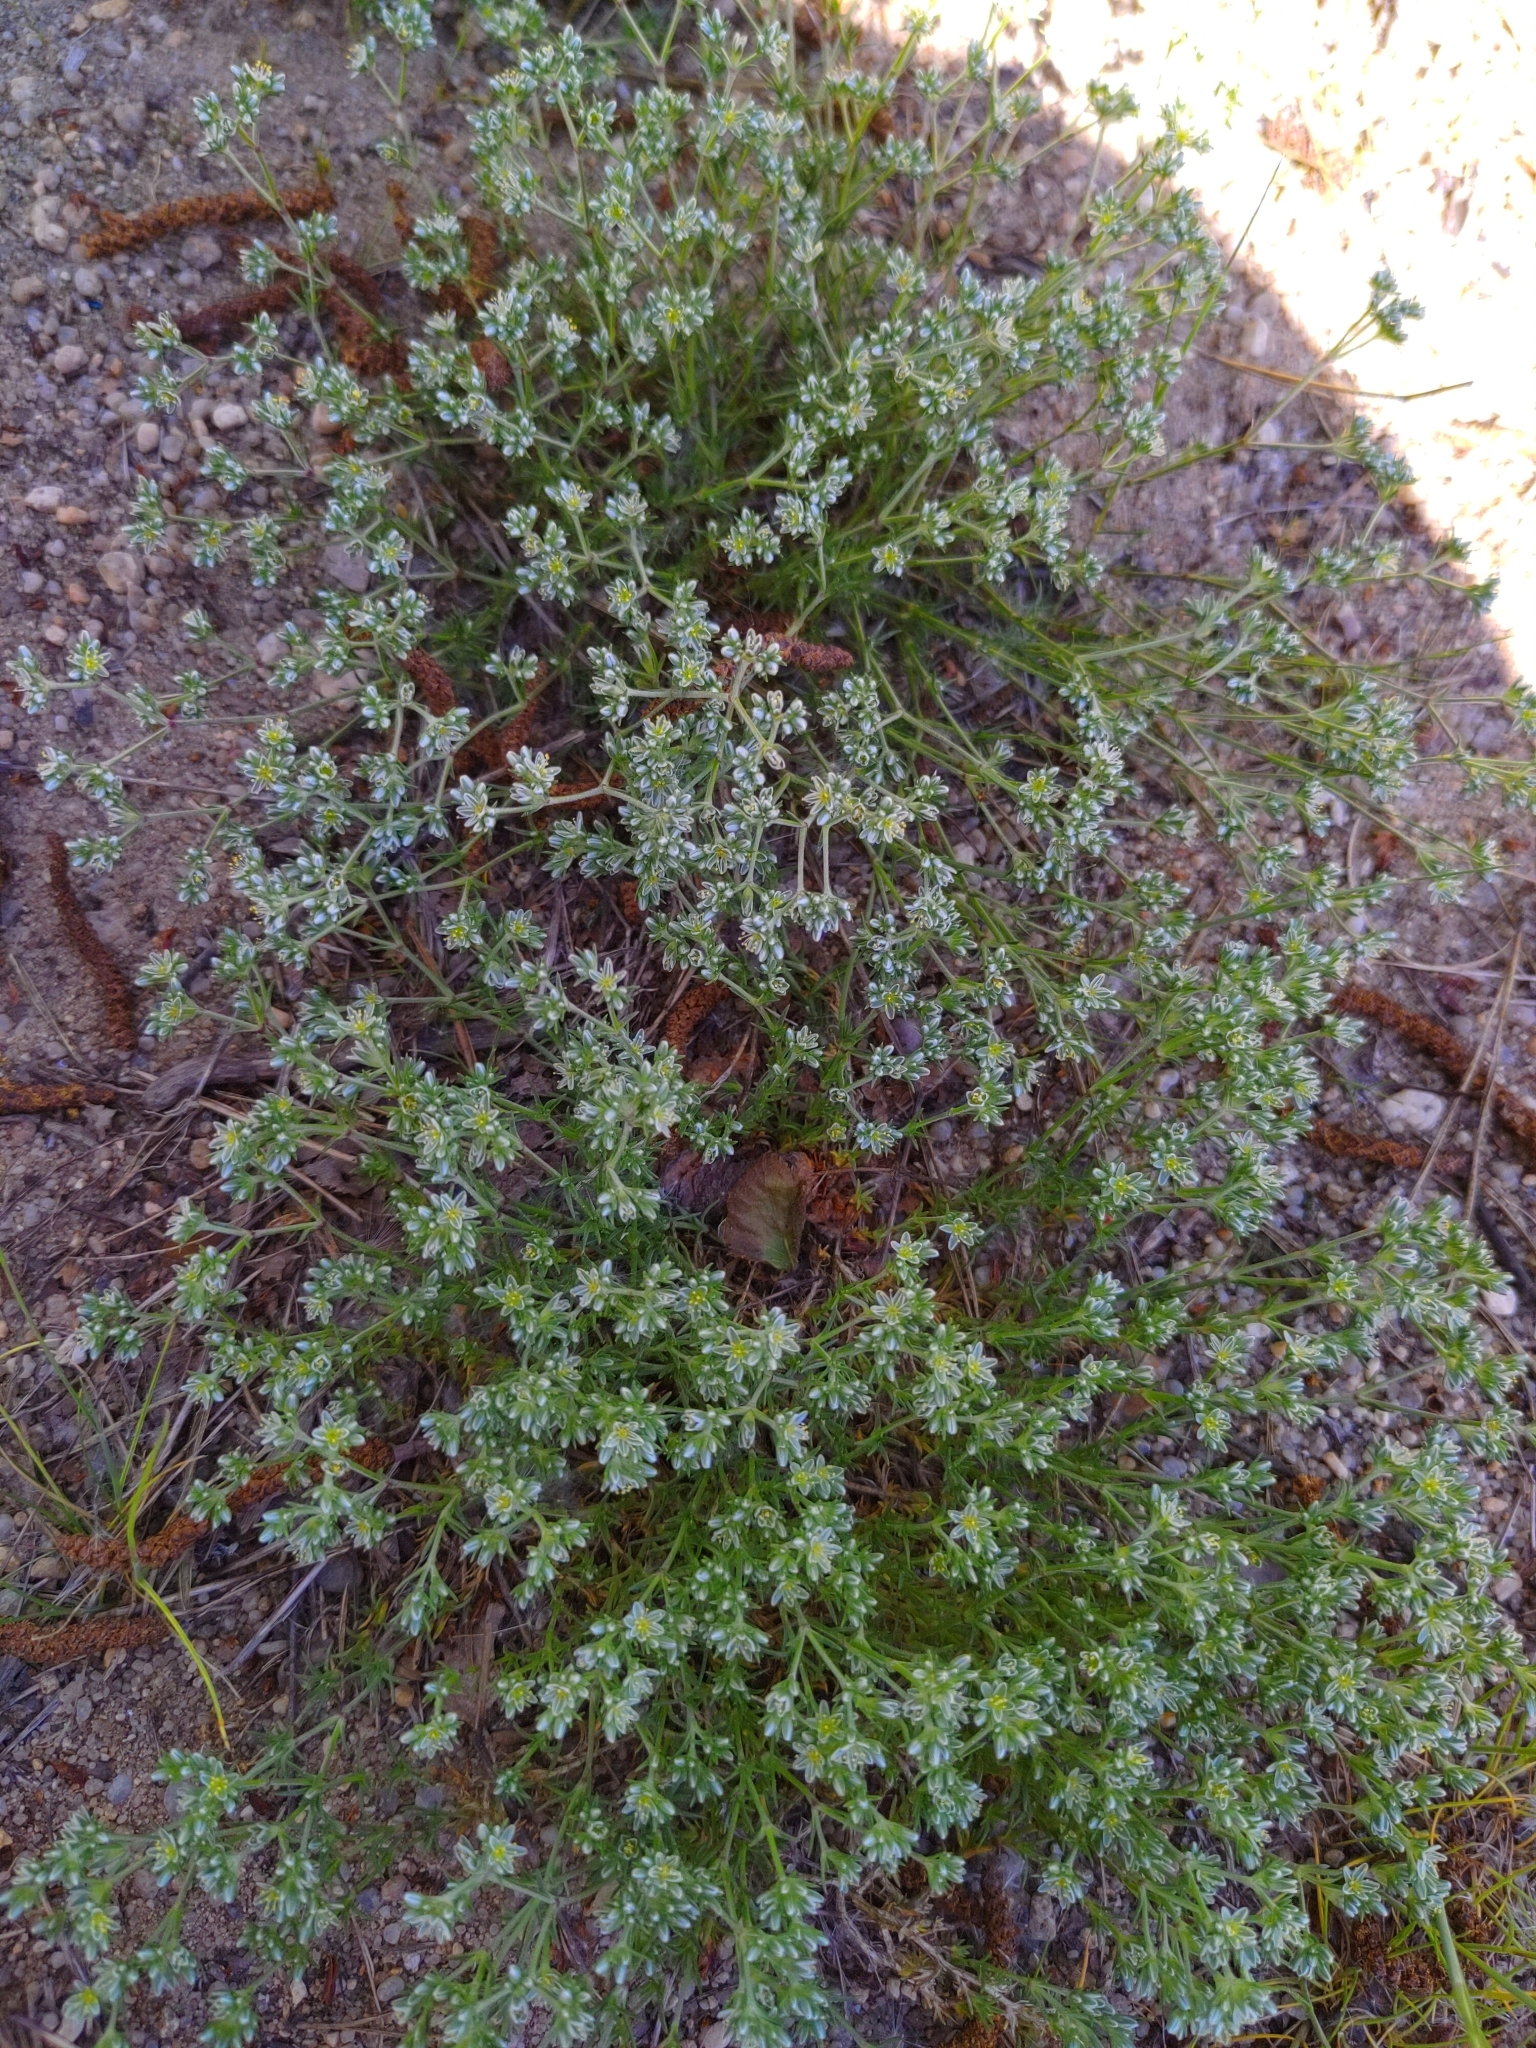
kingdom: Plantae
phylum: Tracheophyta
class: Magnoliopsida
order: Caryophyllales
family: Caryophyllaceae
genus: Scleranthus
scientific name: Scleranthus perennis
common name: Perennial knawel
